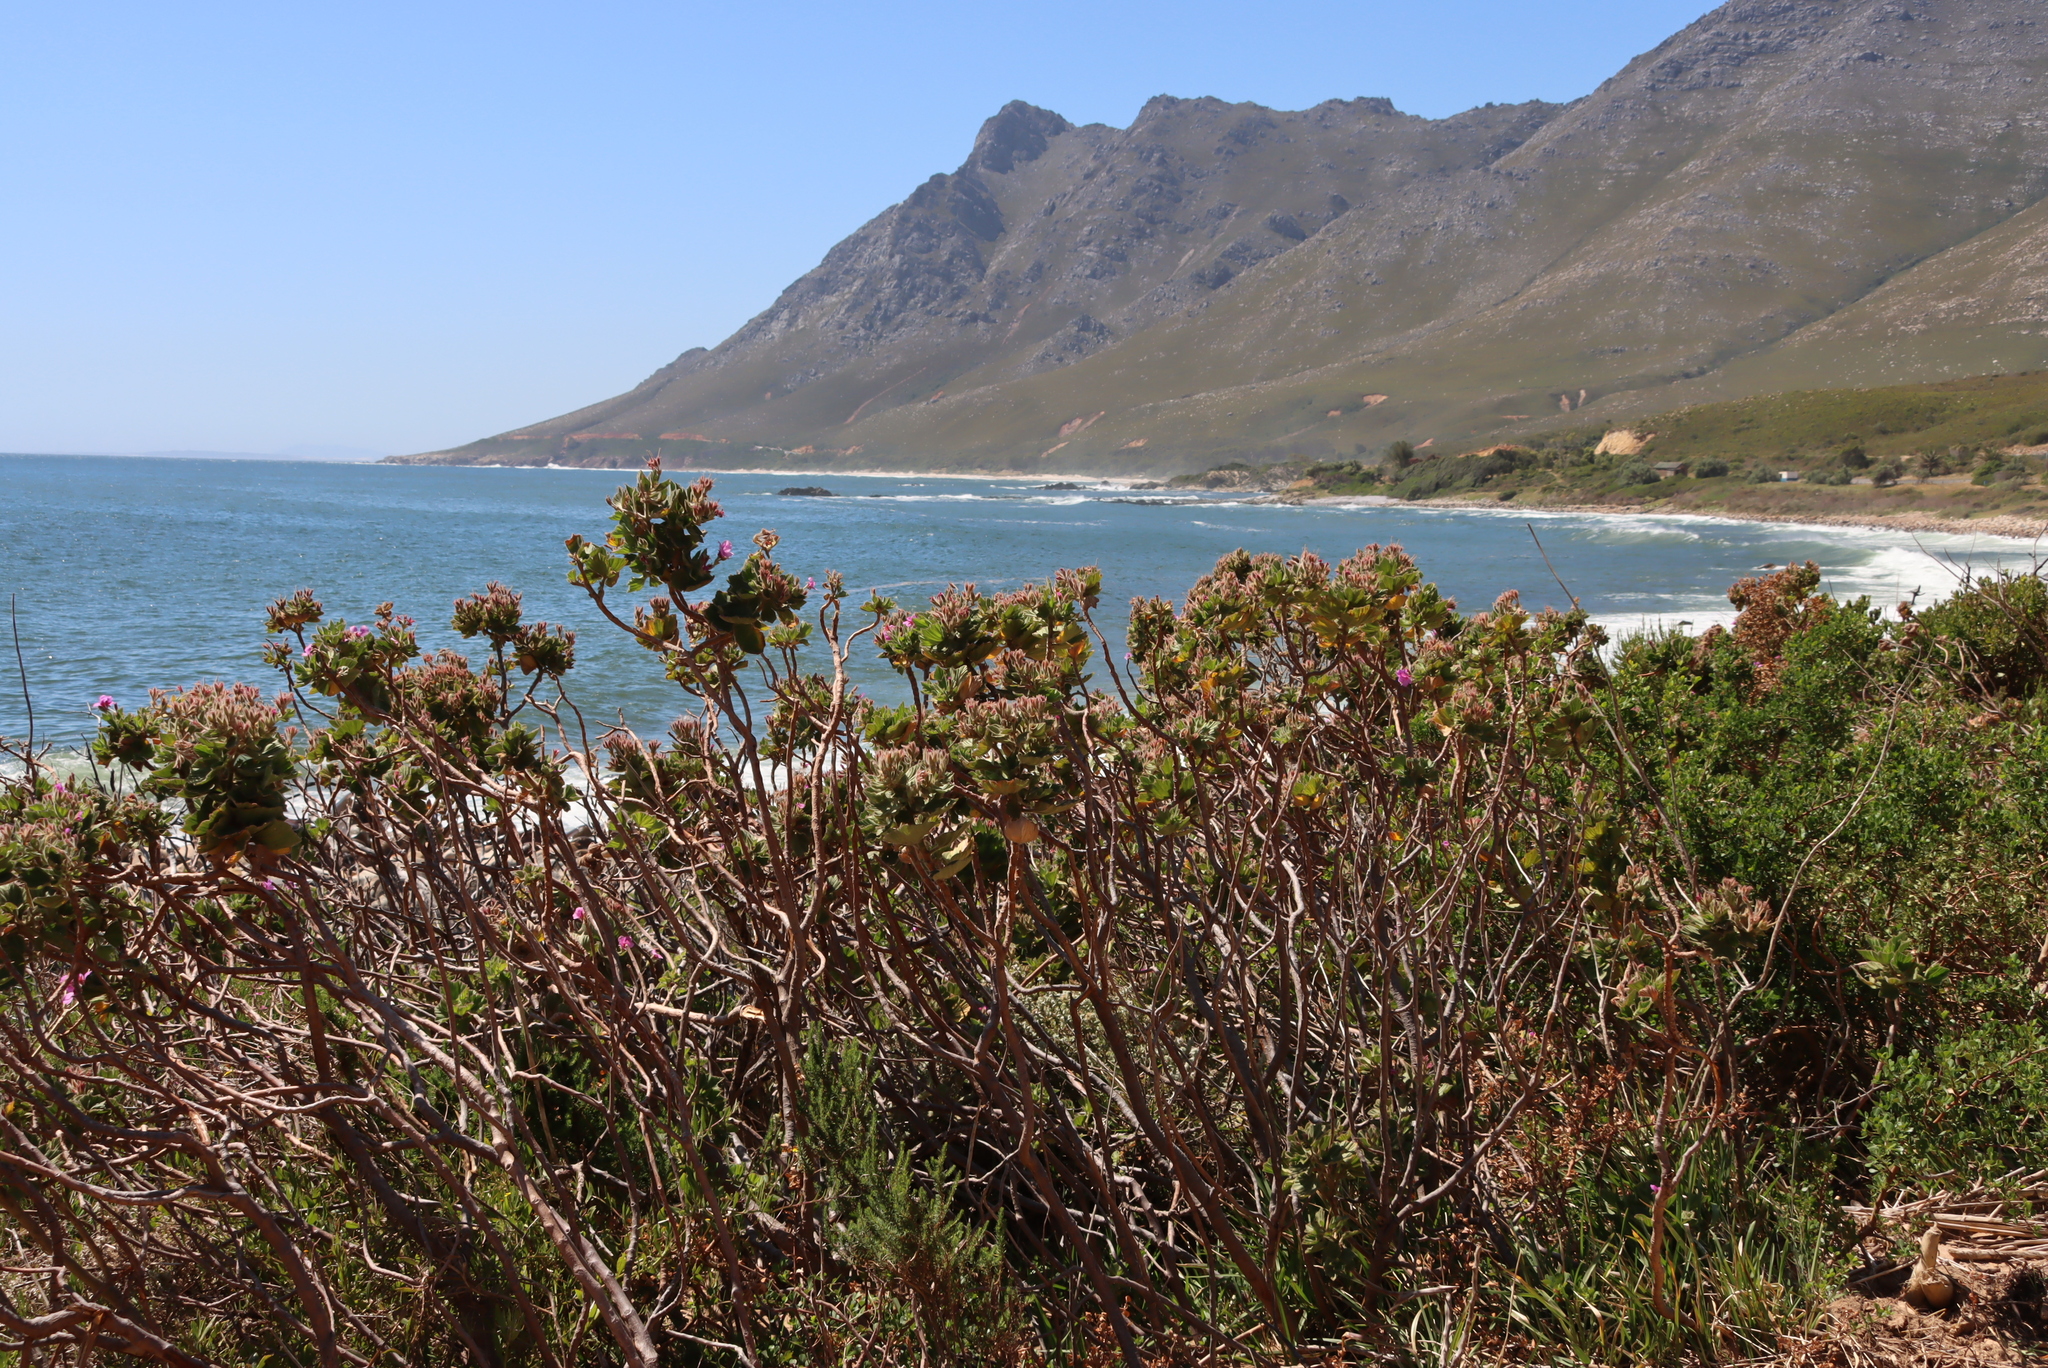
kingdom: Plantae
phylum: Tracheophyta
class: Magnoliopsida
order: Geraniales
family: Geraniaceae
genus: Pelargonium
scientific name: Pelargonium cucullatum
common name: Tree pelargonium
